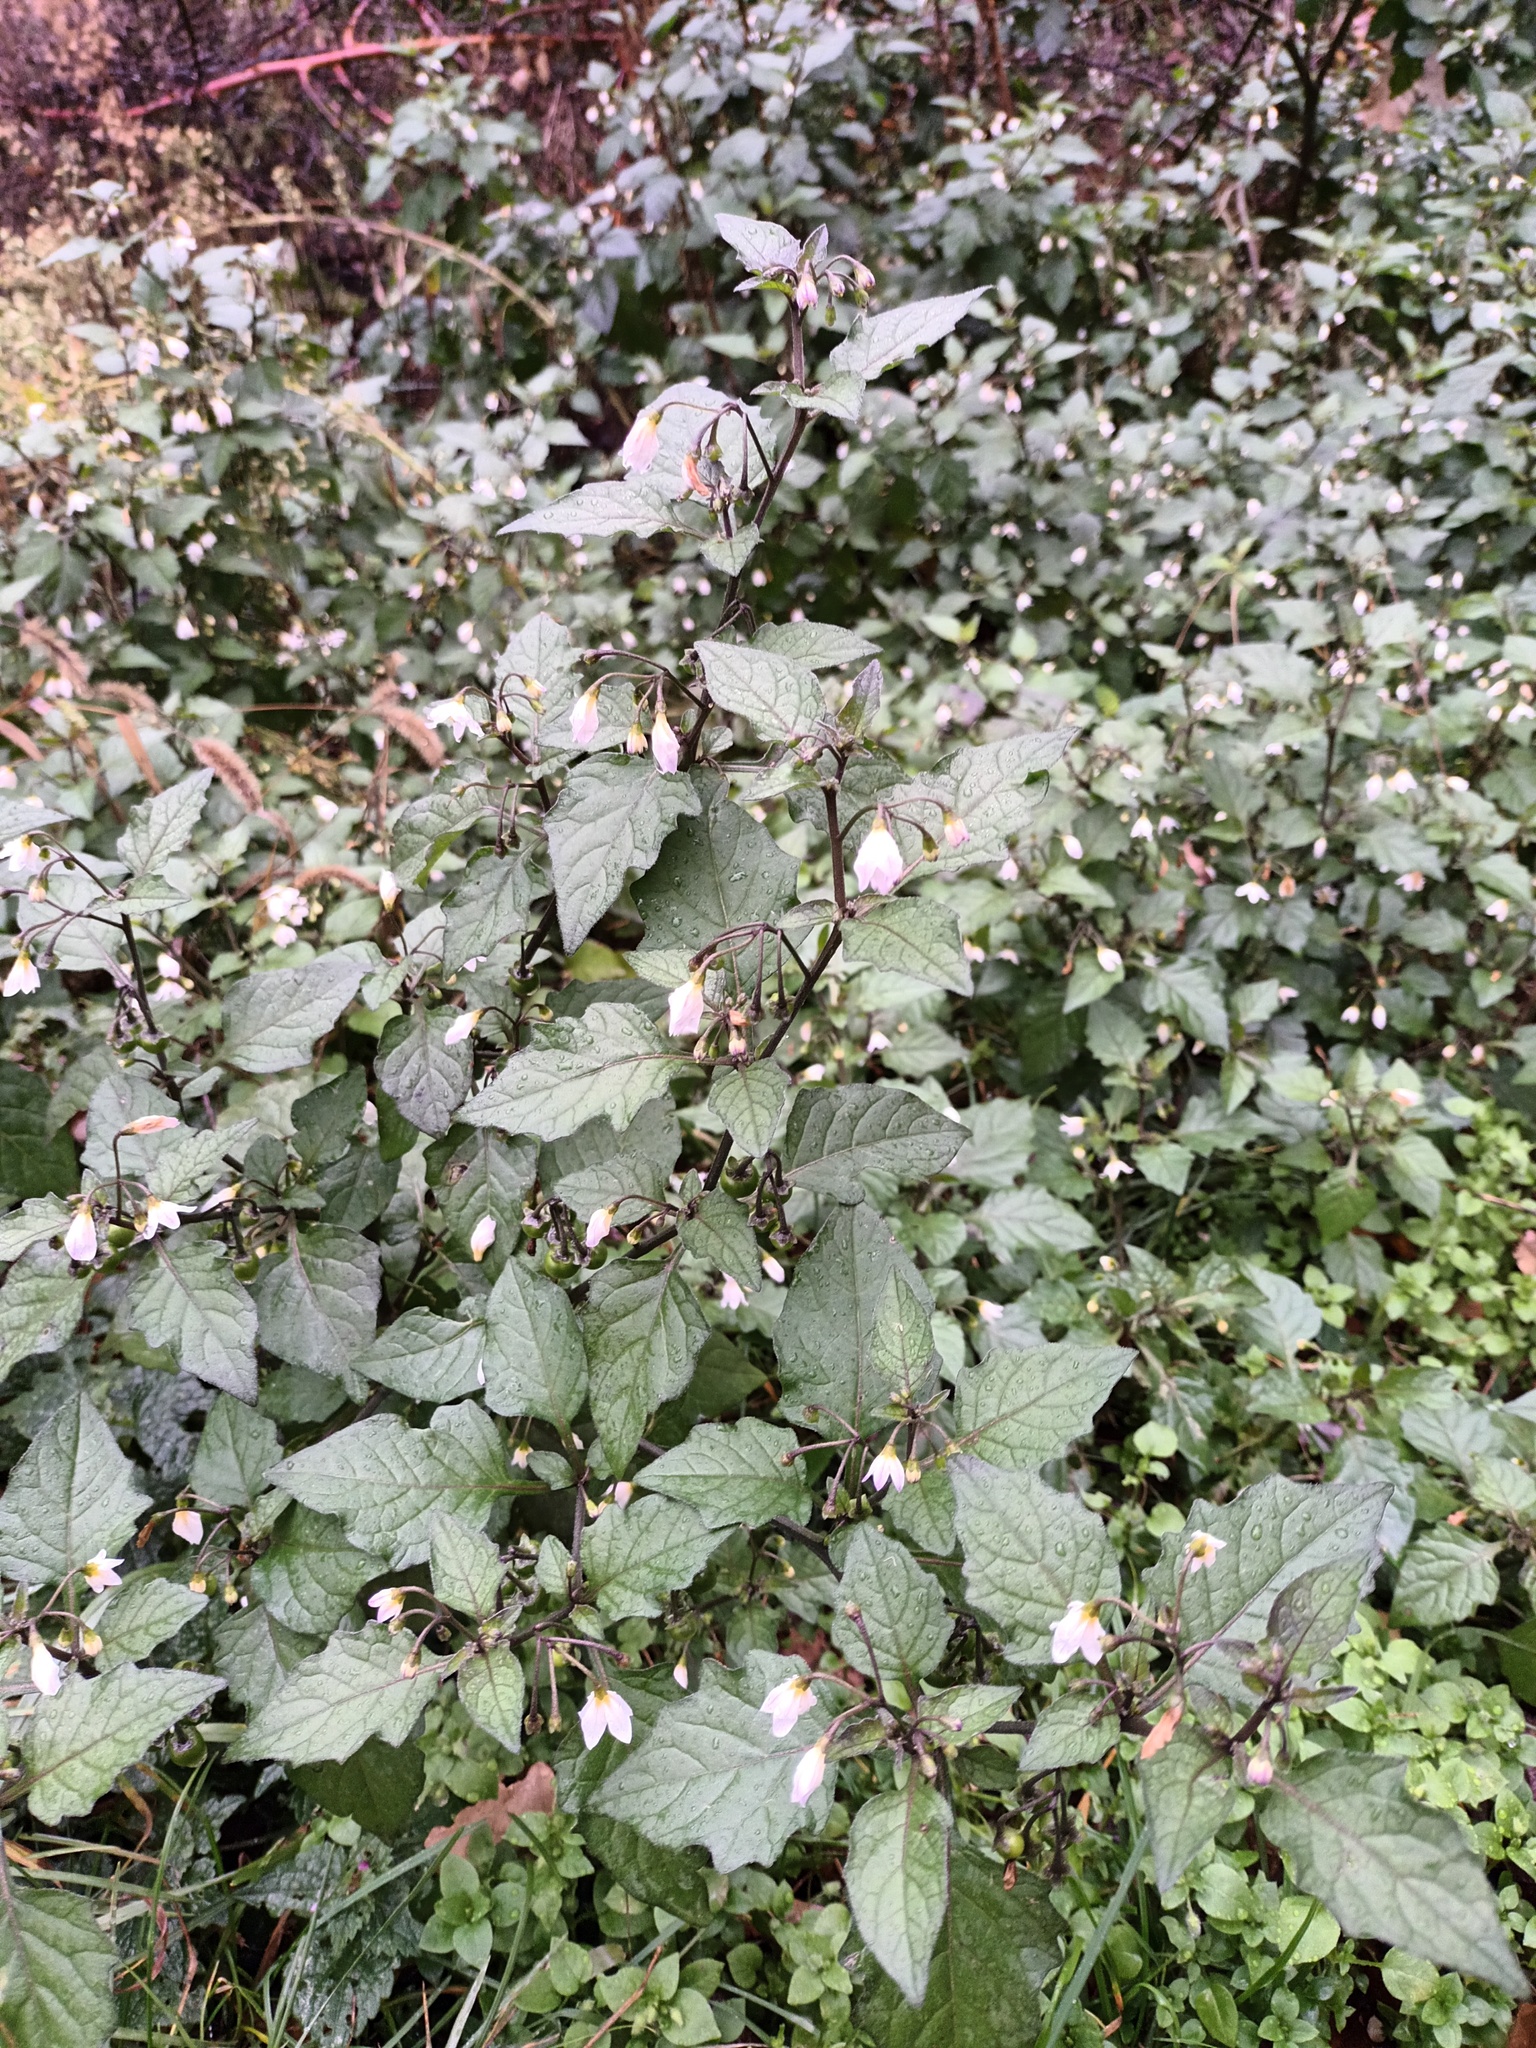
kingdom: Plantae
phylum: Tracheophyta
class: Magnoliopsida
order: Solanales
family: Solanaceae
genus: Solanum
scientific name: Solanum nigrum
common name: Black nightshade
